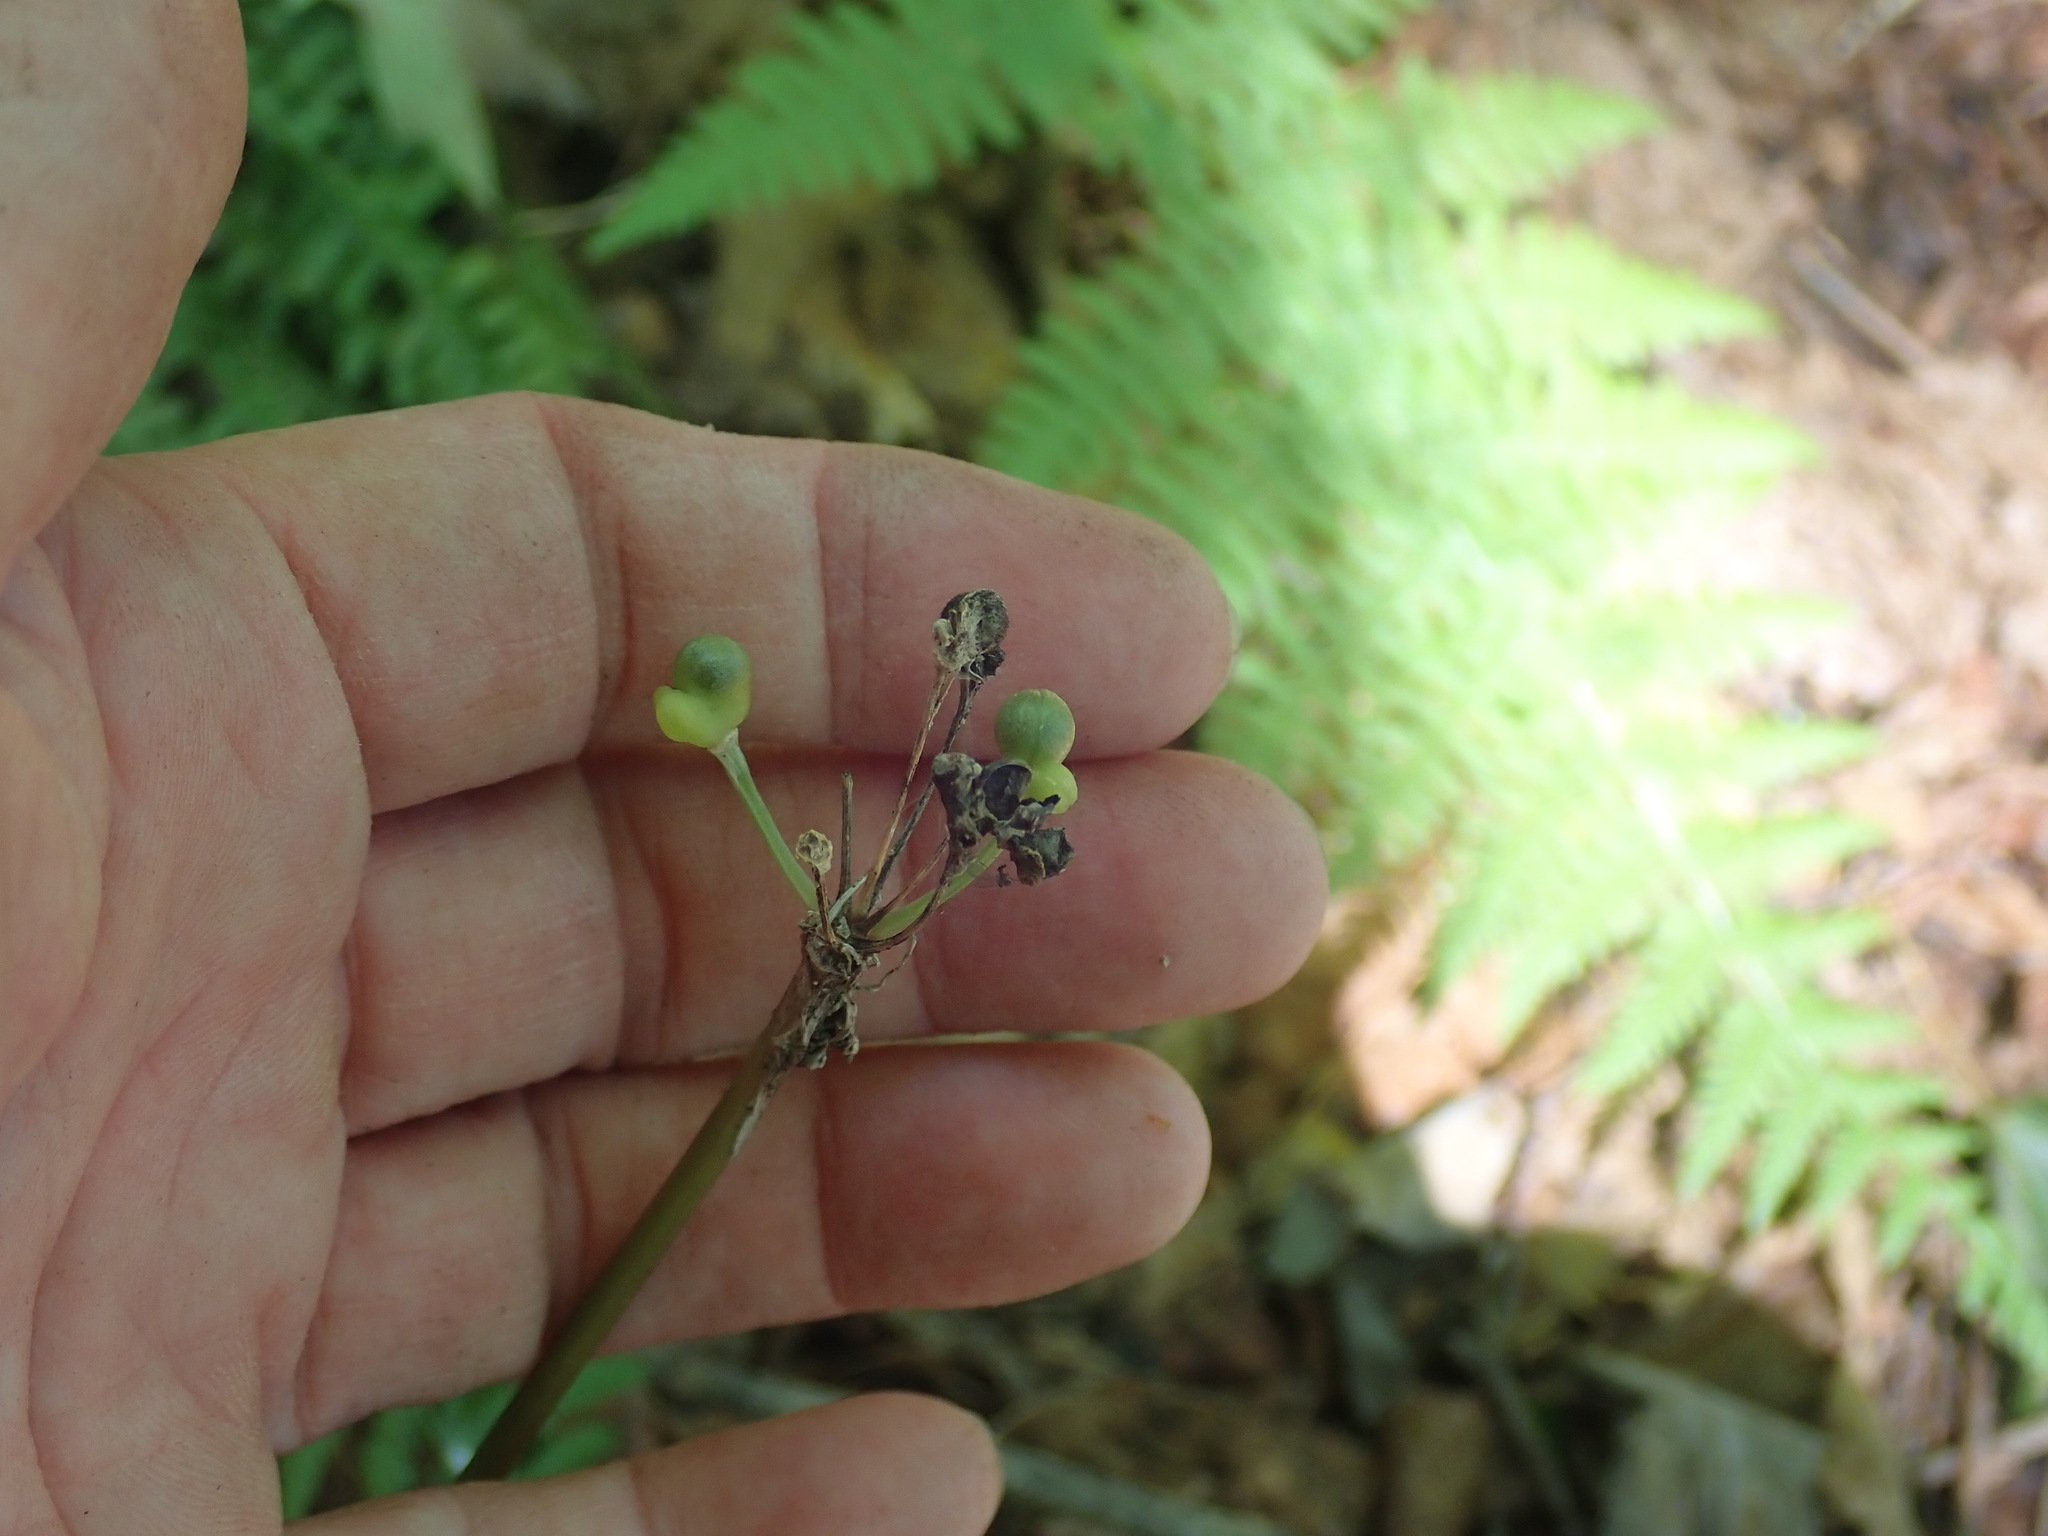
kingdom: Plantae
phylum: Tracheophyta
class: Liliopsida
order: Asparagales
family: Amaryllidaceae
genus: Allium
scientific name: Allium tricoccum
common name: Ramp
